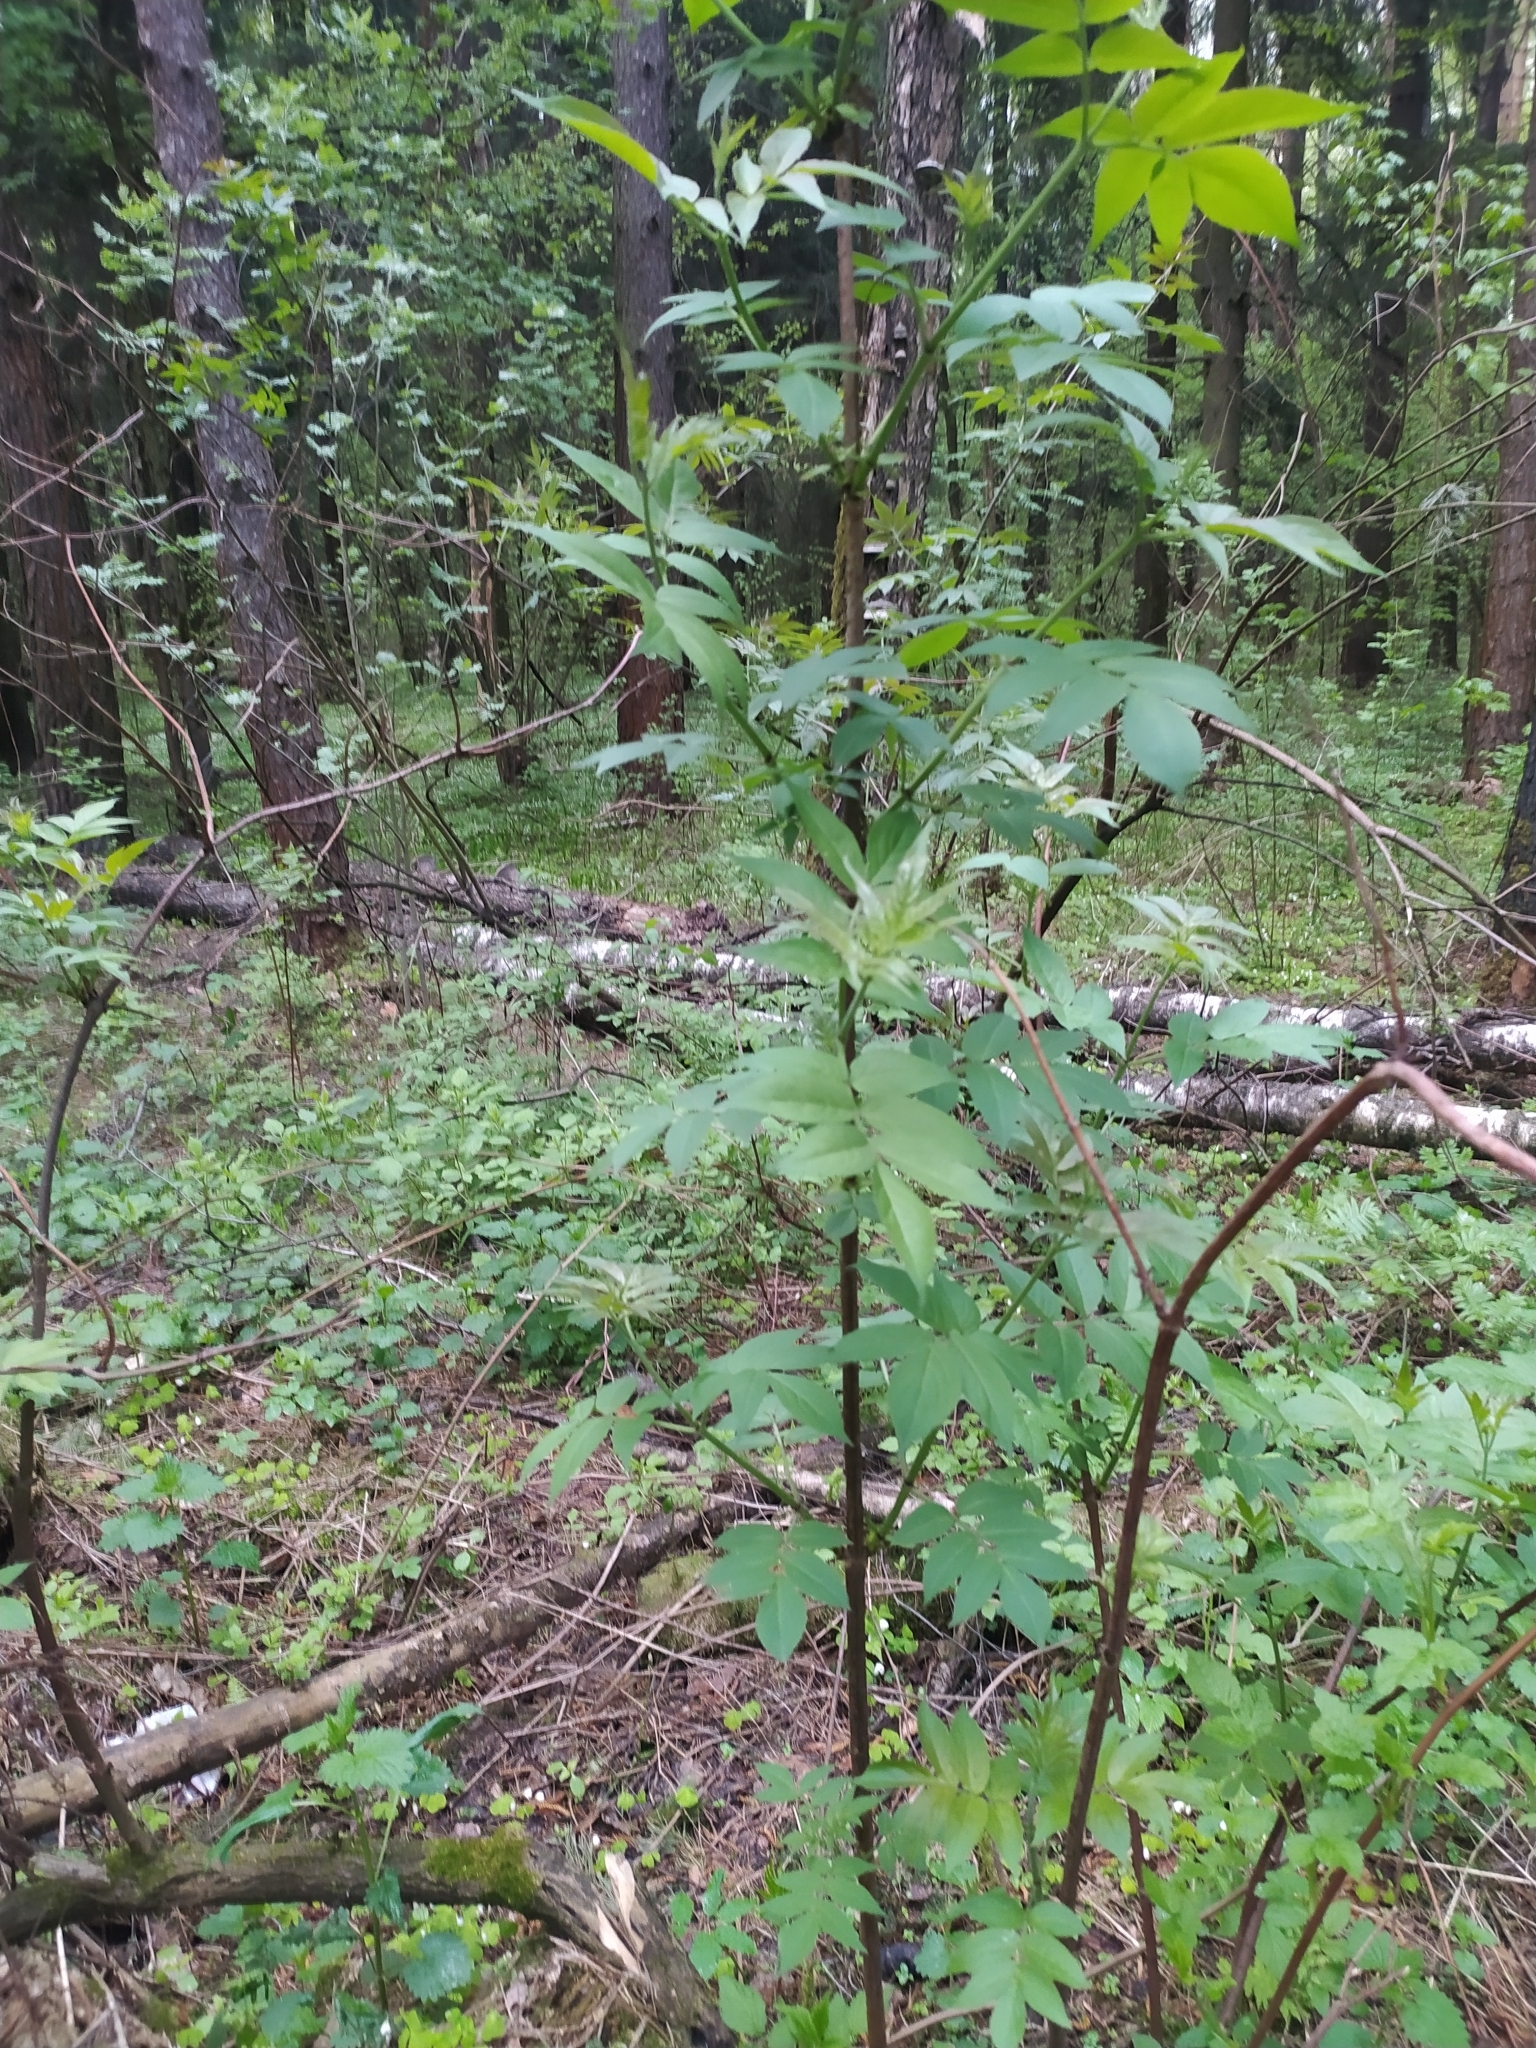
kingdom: Plantae
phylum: Tracheophyta
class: Magnoliopsida
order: Dipsacales
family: Viburnaceae
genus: Sambucus
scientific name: Sambucus racemosa
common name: Red-berried elder
